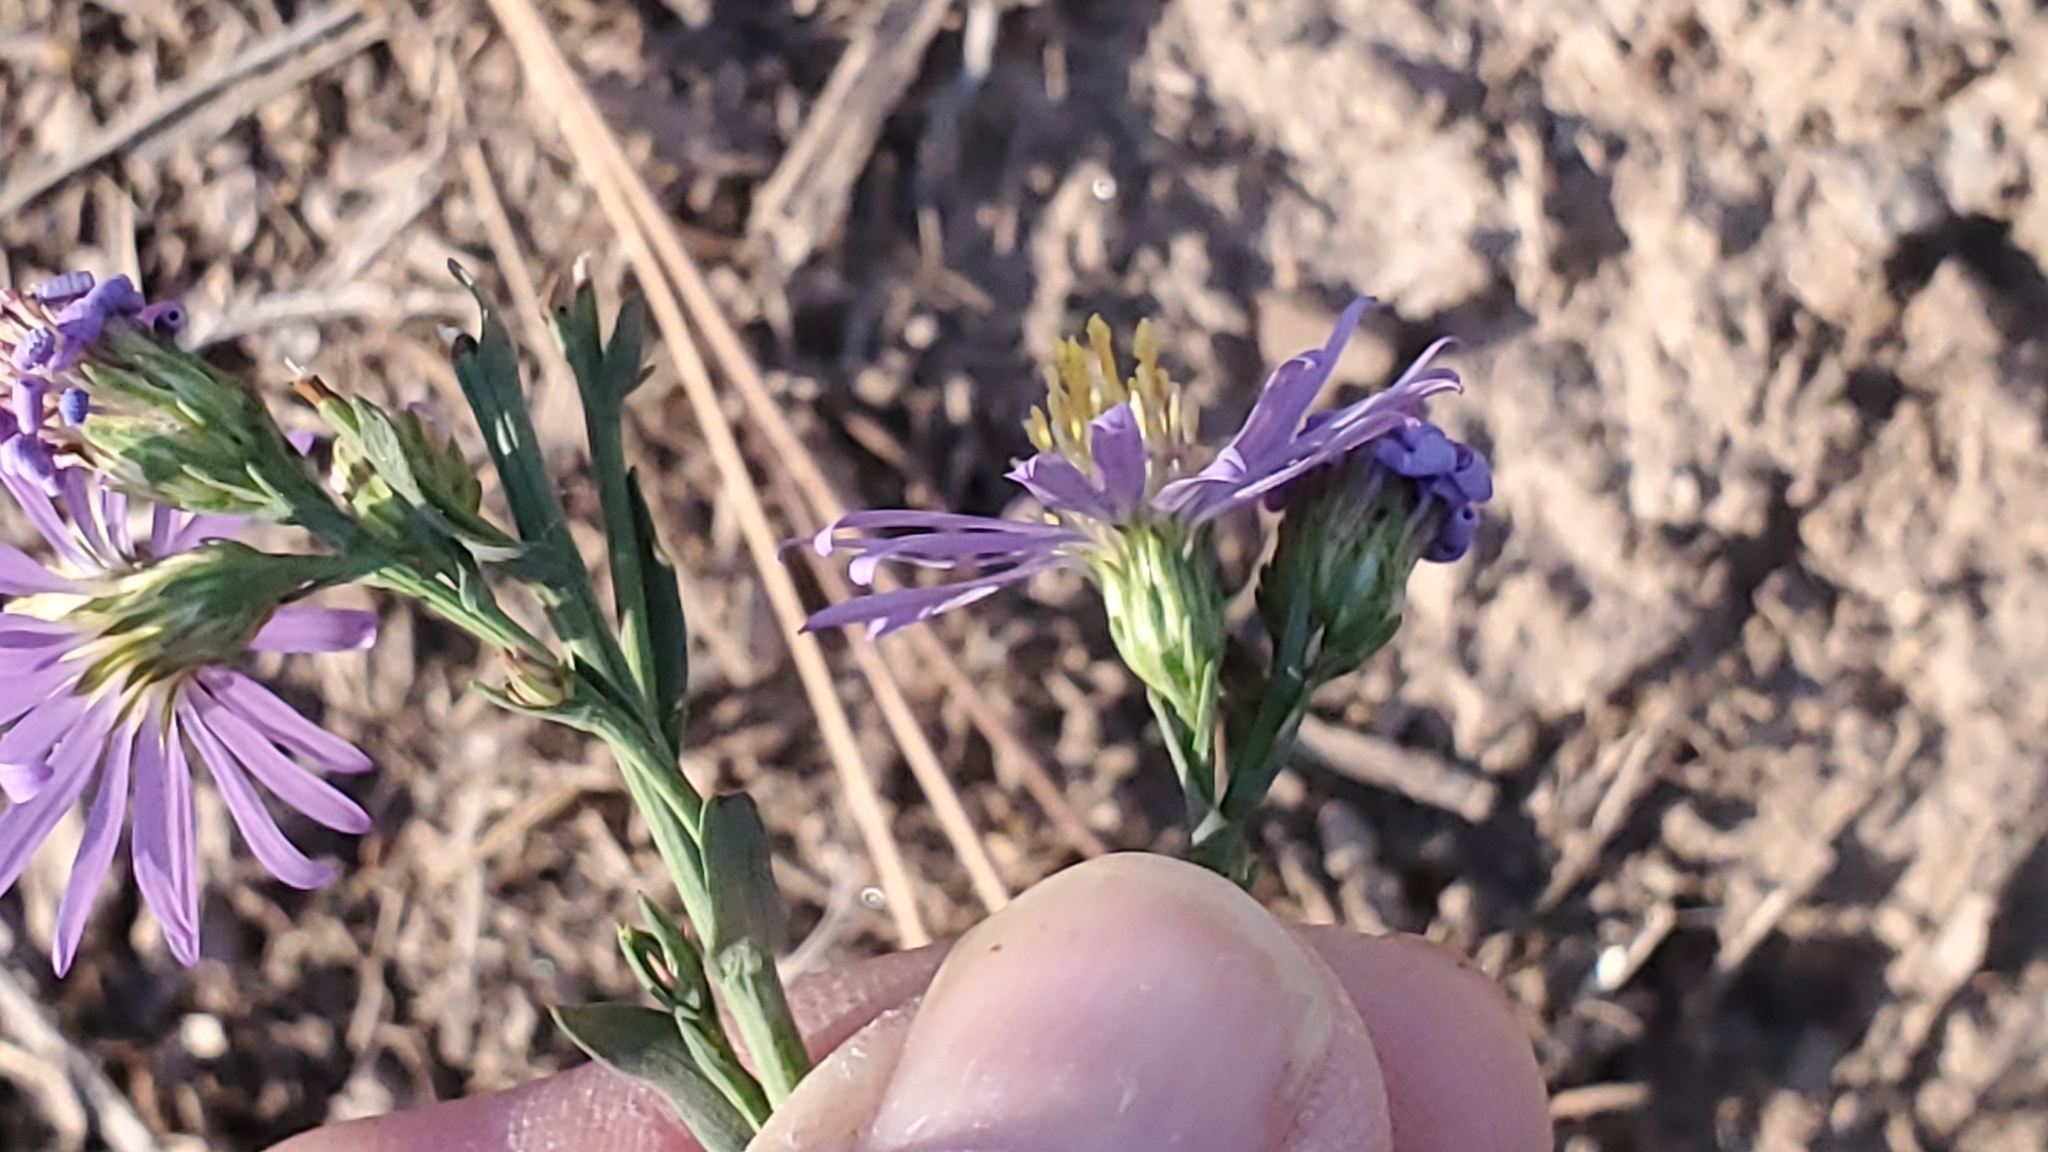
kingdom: Plantae
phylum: Tracheophyta
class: Magnoliopsida
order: Asterales
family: Asteraceae
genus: Symphyotrichum
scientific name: Symphyotrichum laeve
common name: Glaucous aster
